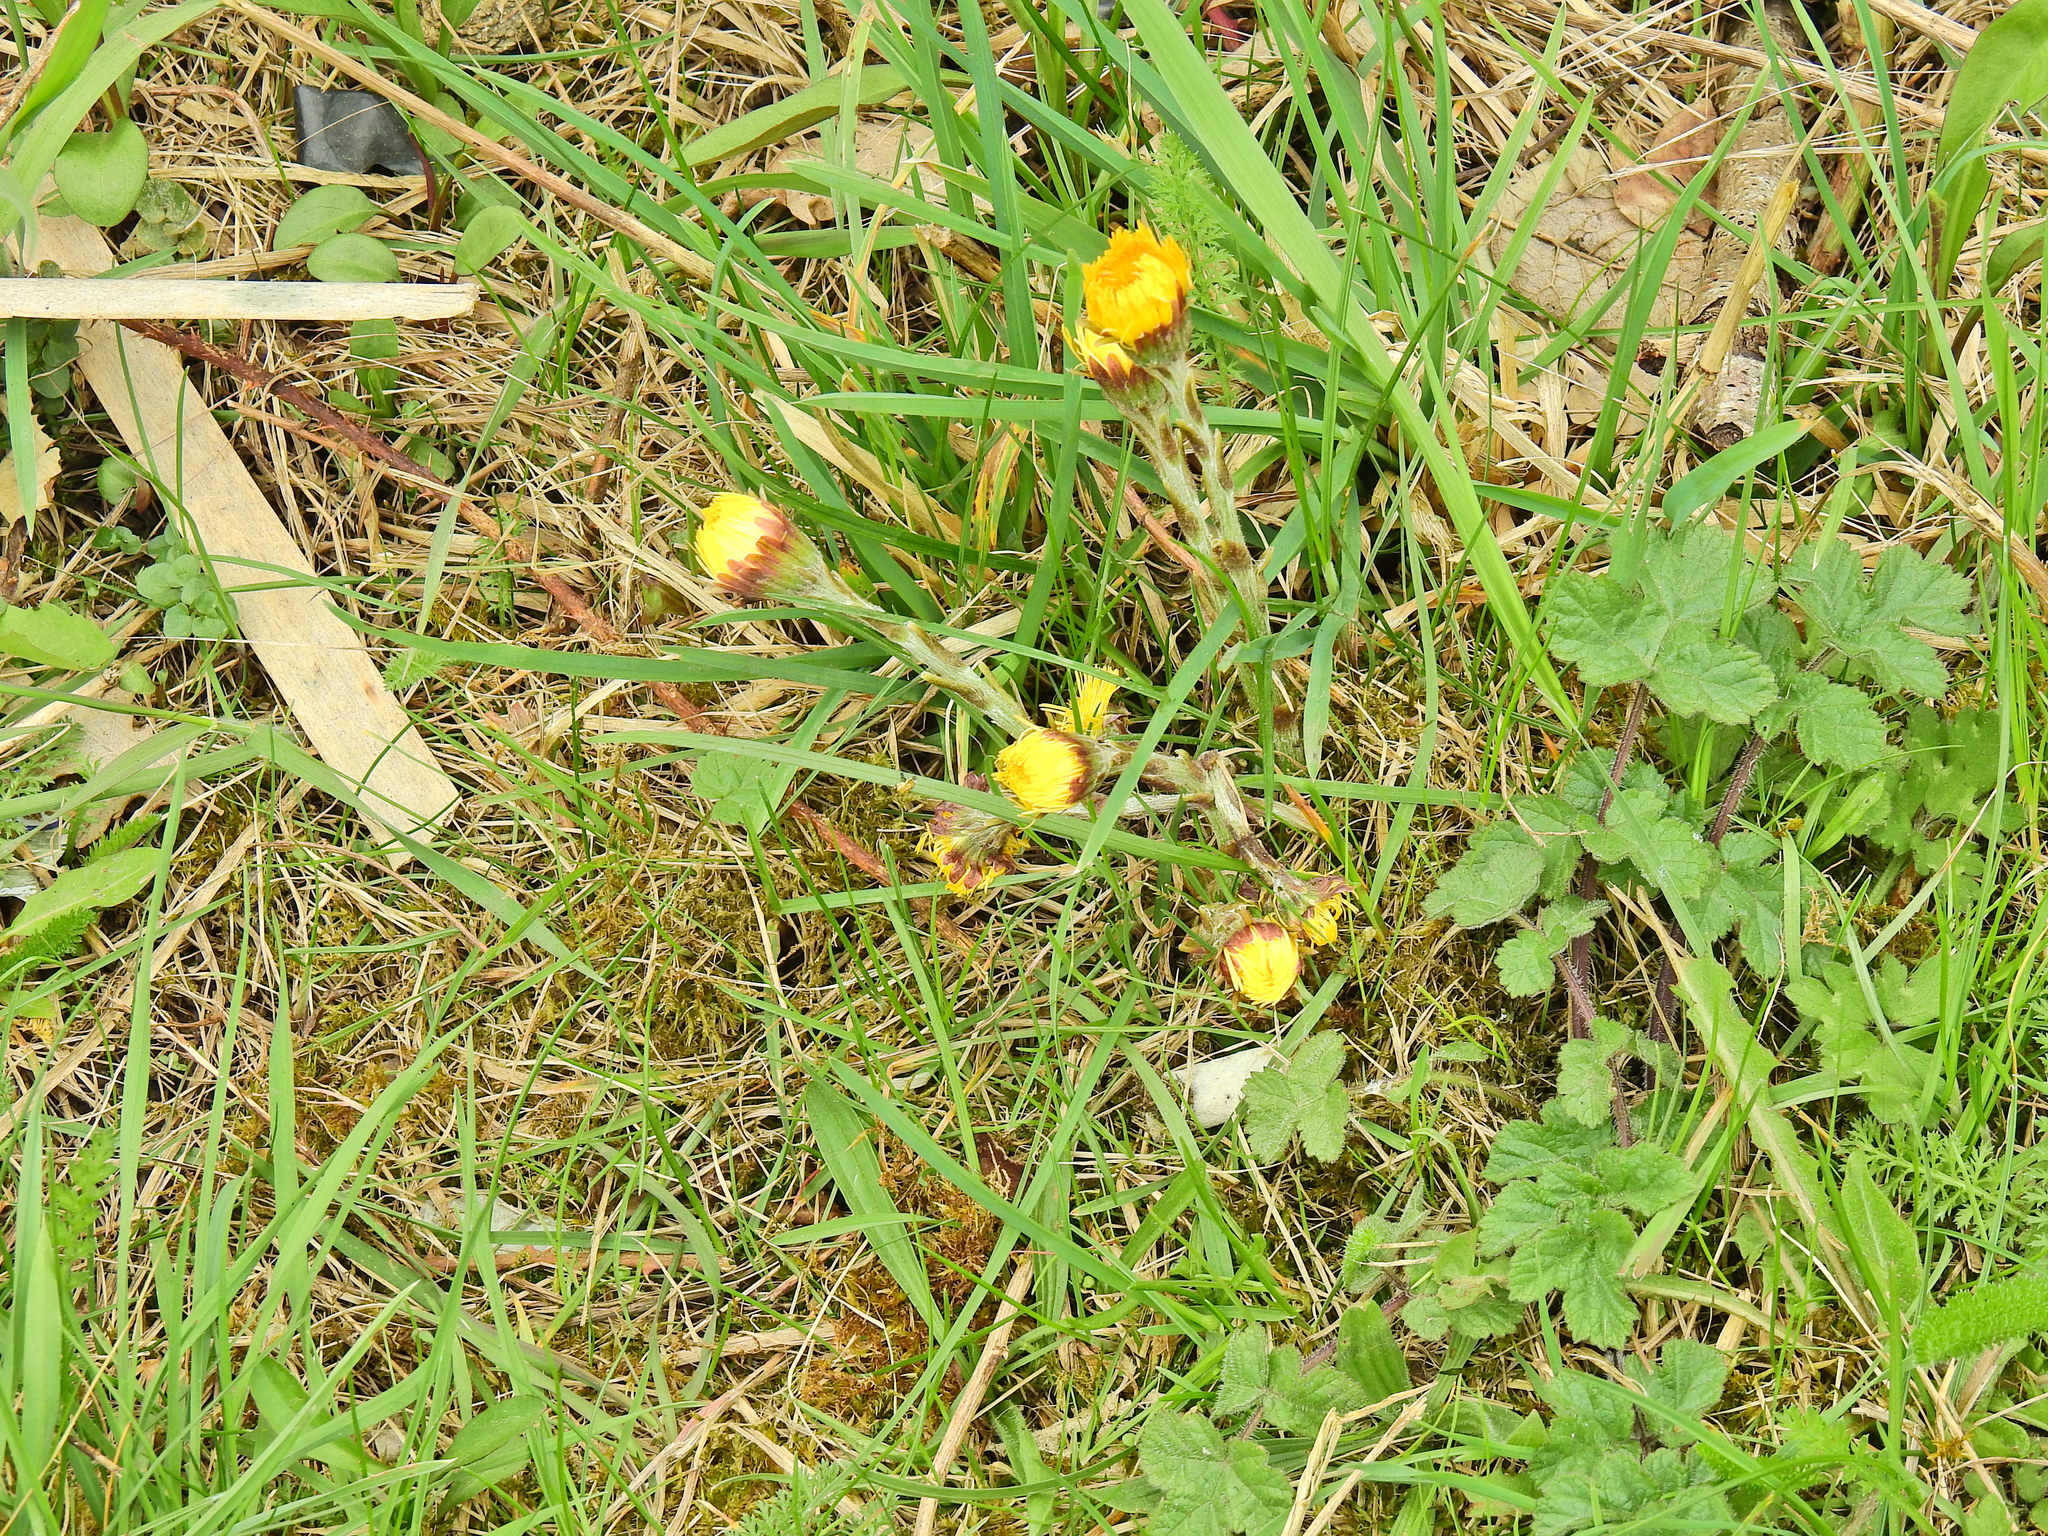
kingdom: Plantae
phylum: Tracheophyta
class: Magnoliopsida
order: Asterales
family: Asteraceae
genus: Tussilago
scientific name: Tussilago farfara
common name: Coltsfoot
